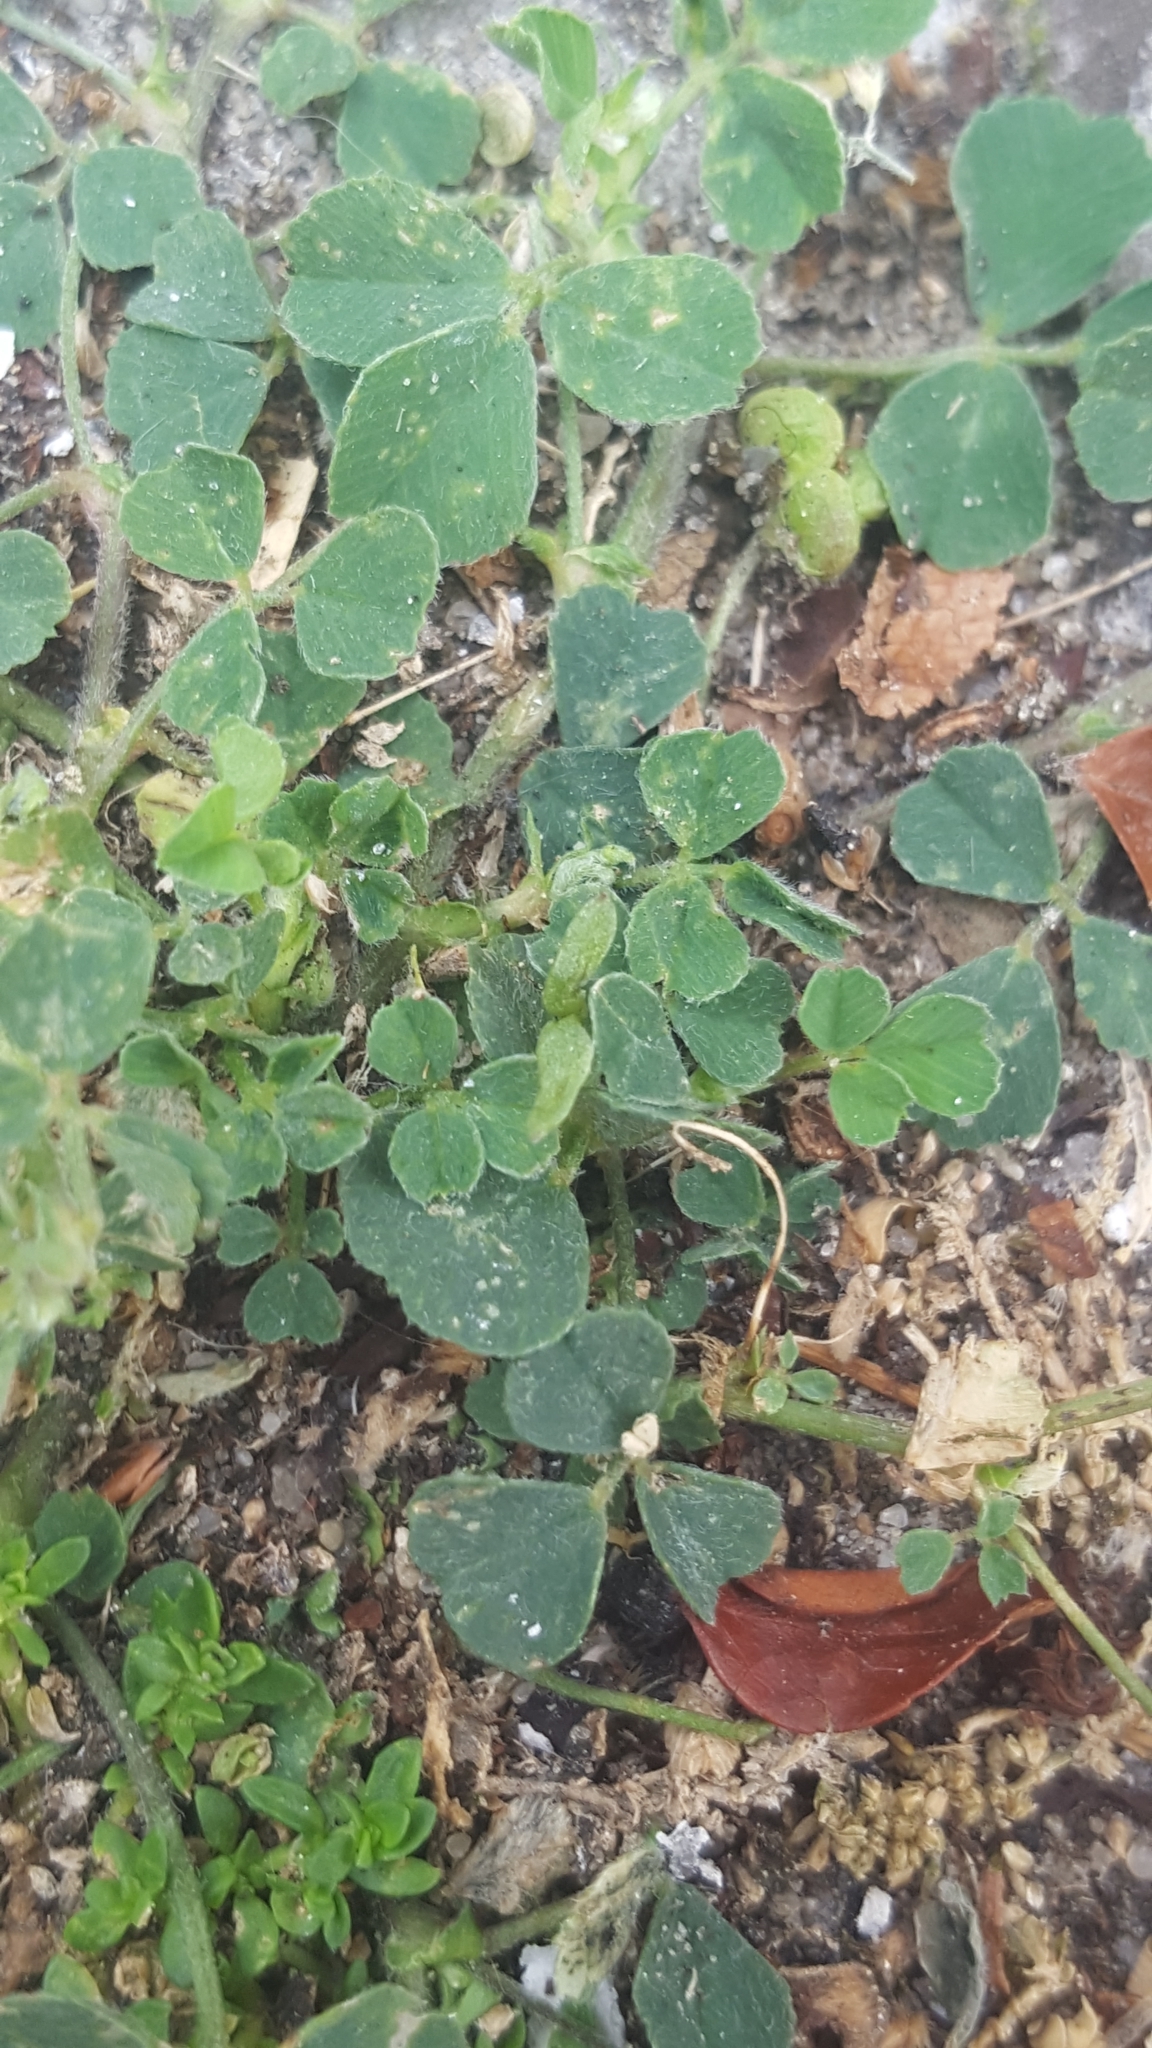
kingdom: Plantae
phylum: Tracheophyta
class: Magnoliopsida
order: Fabales
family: Fabaceae
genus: Medicago
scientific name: Medicago lupulina
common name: Black medick
